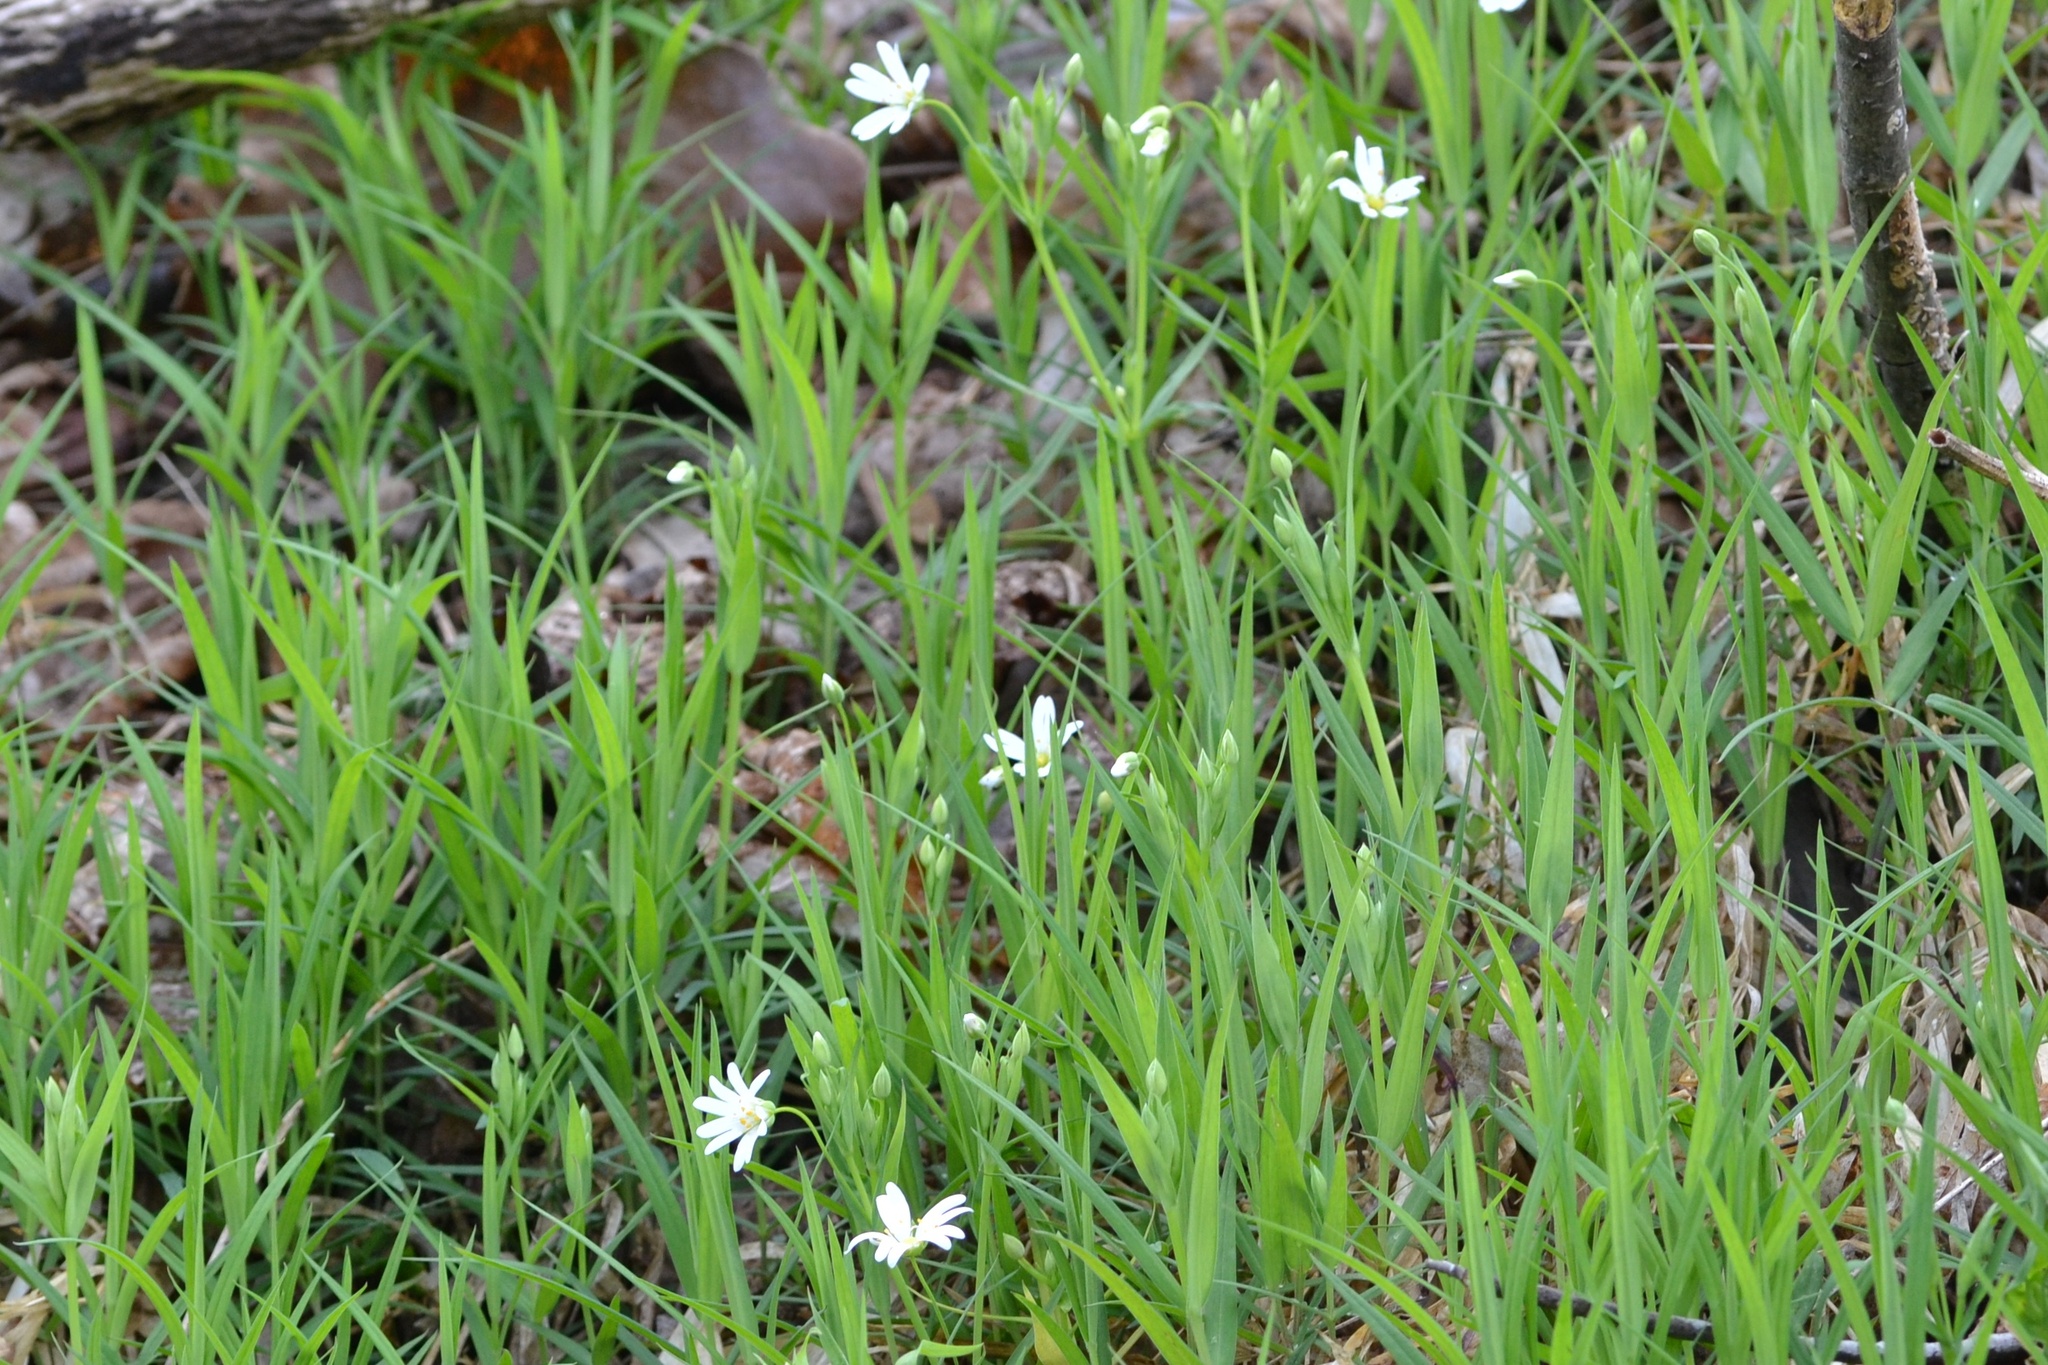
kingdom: Plantae
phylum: Tracheophyta
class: Magnoliopsida
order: Caryophyllales
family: Caryophyllaceae
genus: Rabelera
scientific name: Rabelera holostea
